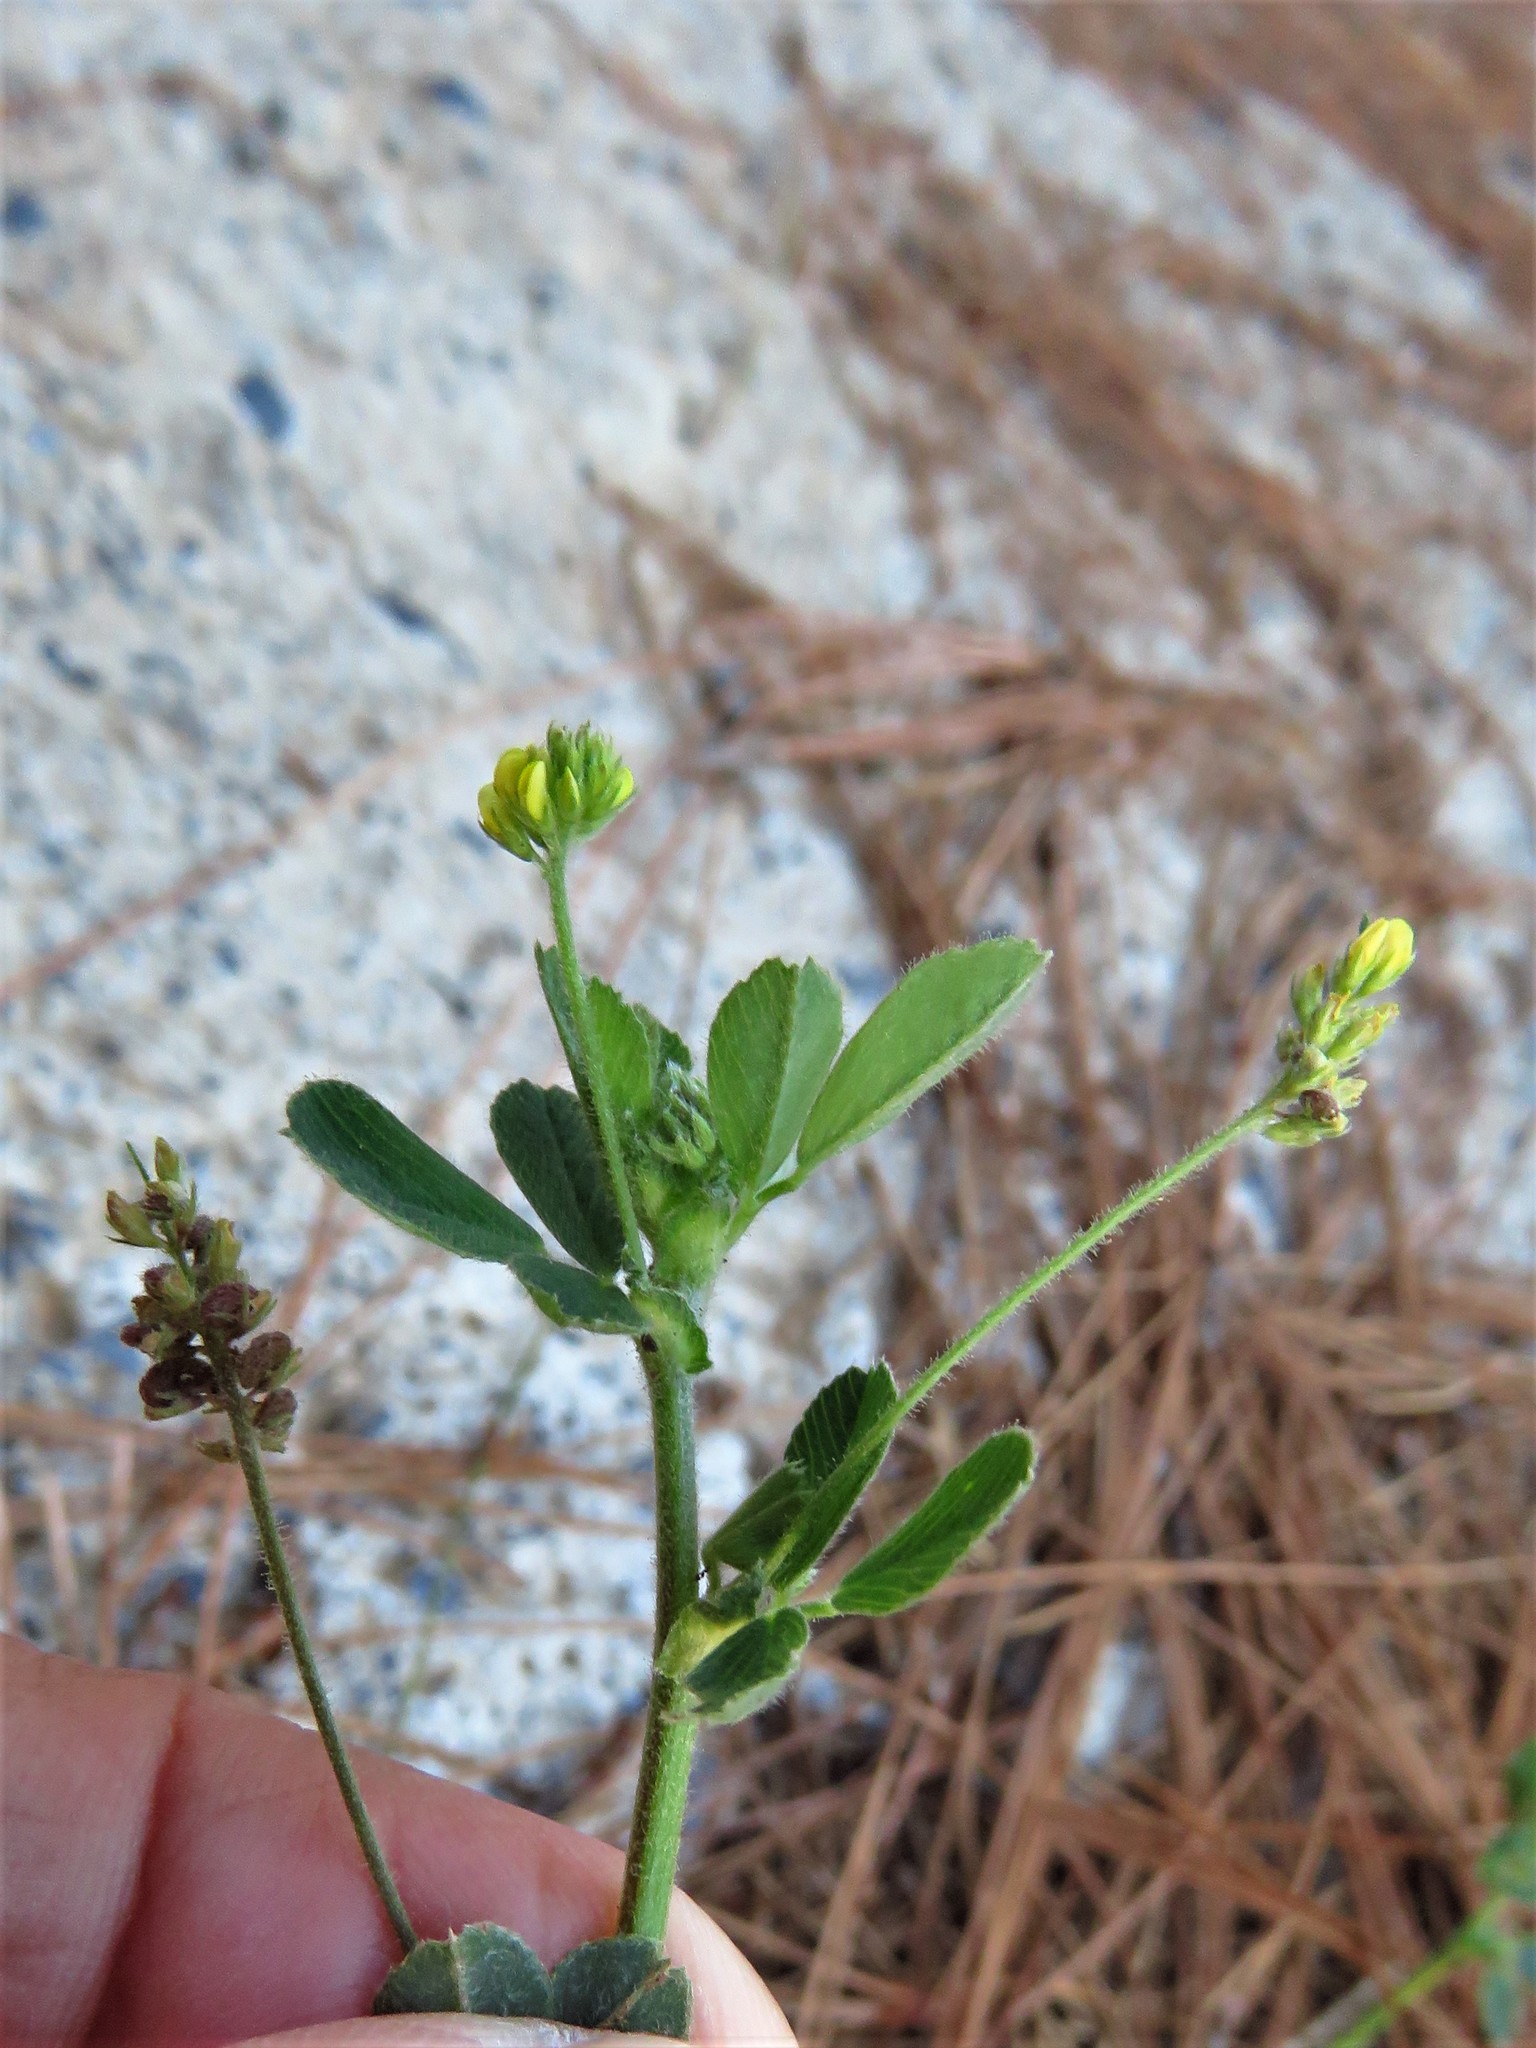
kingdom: Plantae
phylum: Tracheophyta
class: Magnoliopsida
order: Fabales
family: Fabaceae
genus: Medicago
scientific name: Medicago lupulina
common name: Black medick
